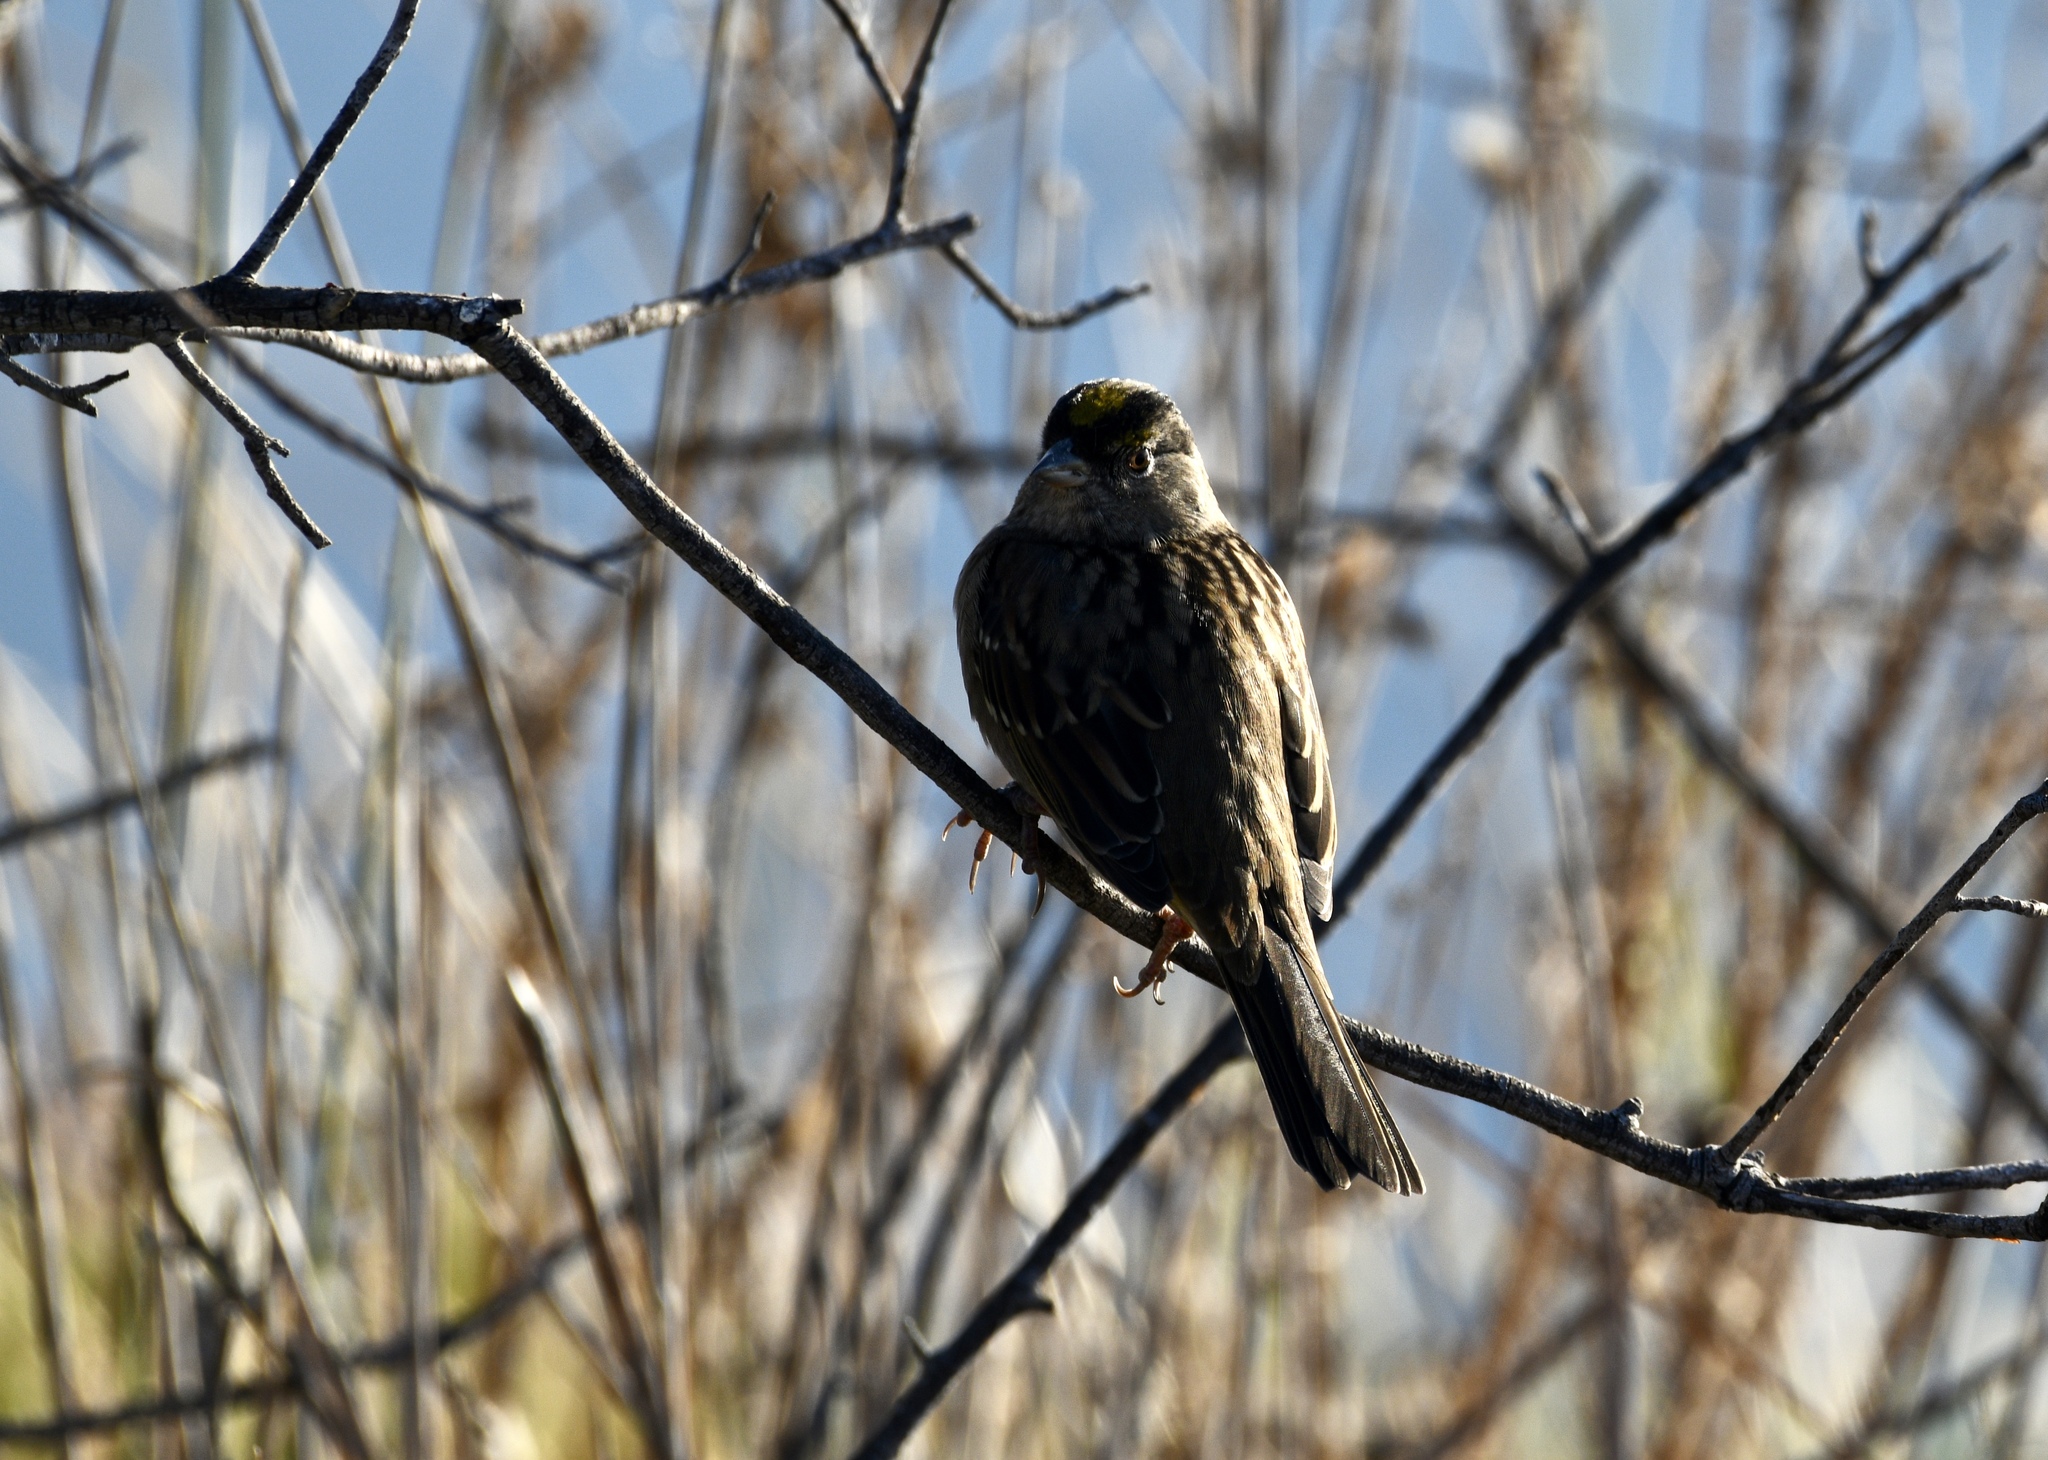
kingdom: Animalia
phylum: Chordata
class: Aves
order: Passeriformes
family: Passerellidae
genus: Zonotrichia
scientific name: Zonotrichia atricapilla
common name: Golden-crowned sparrow
